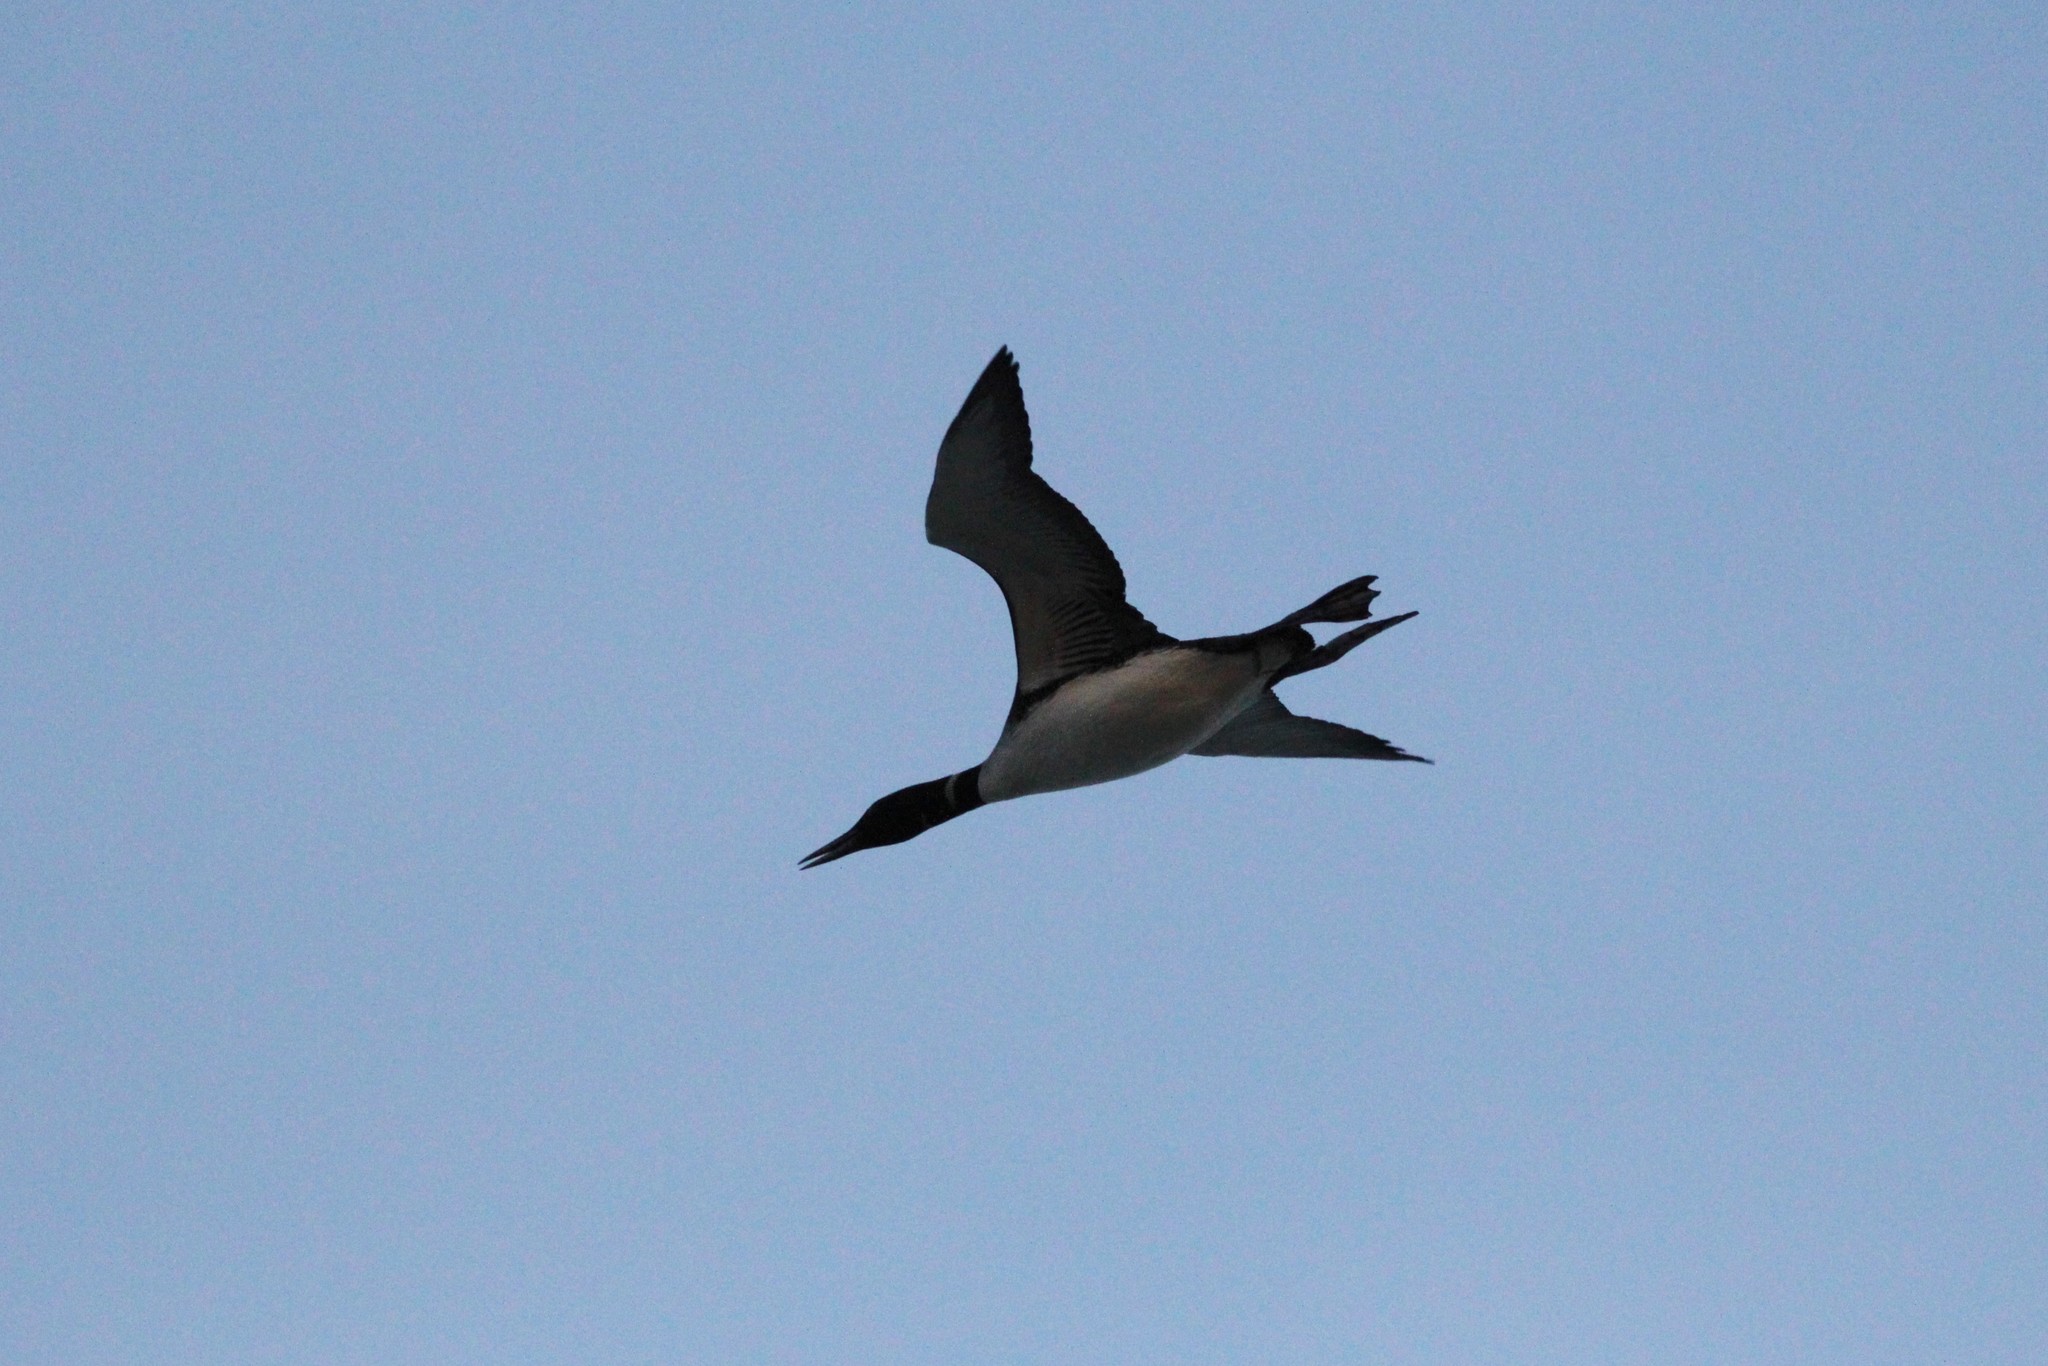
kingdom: Animalia
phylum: Chordata
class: Aves
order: Gaviiformes
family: Gaviidae
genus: Gavia
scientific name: Gavia immer
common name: Common loon
